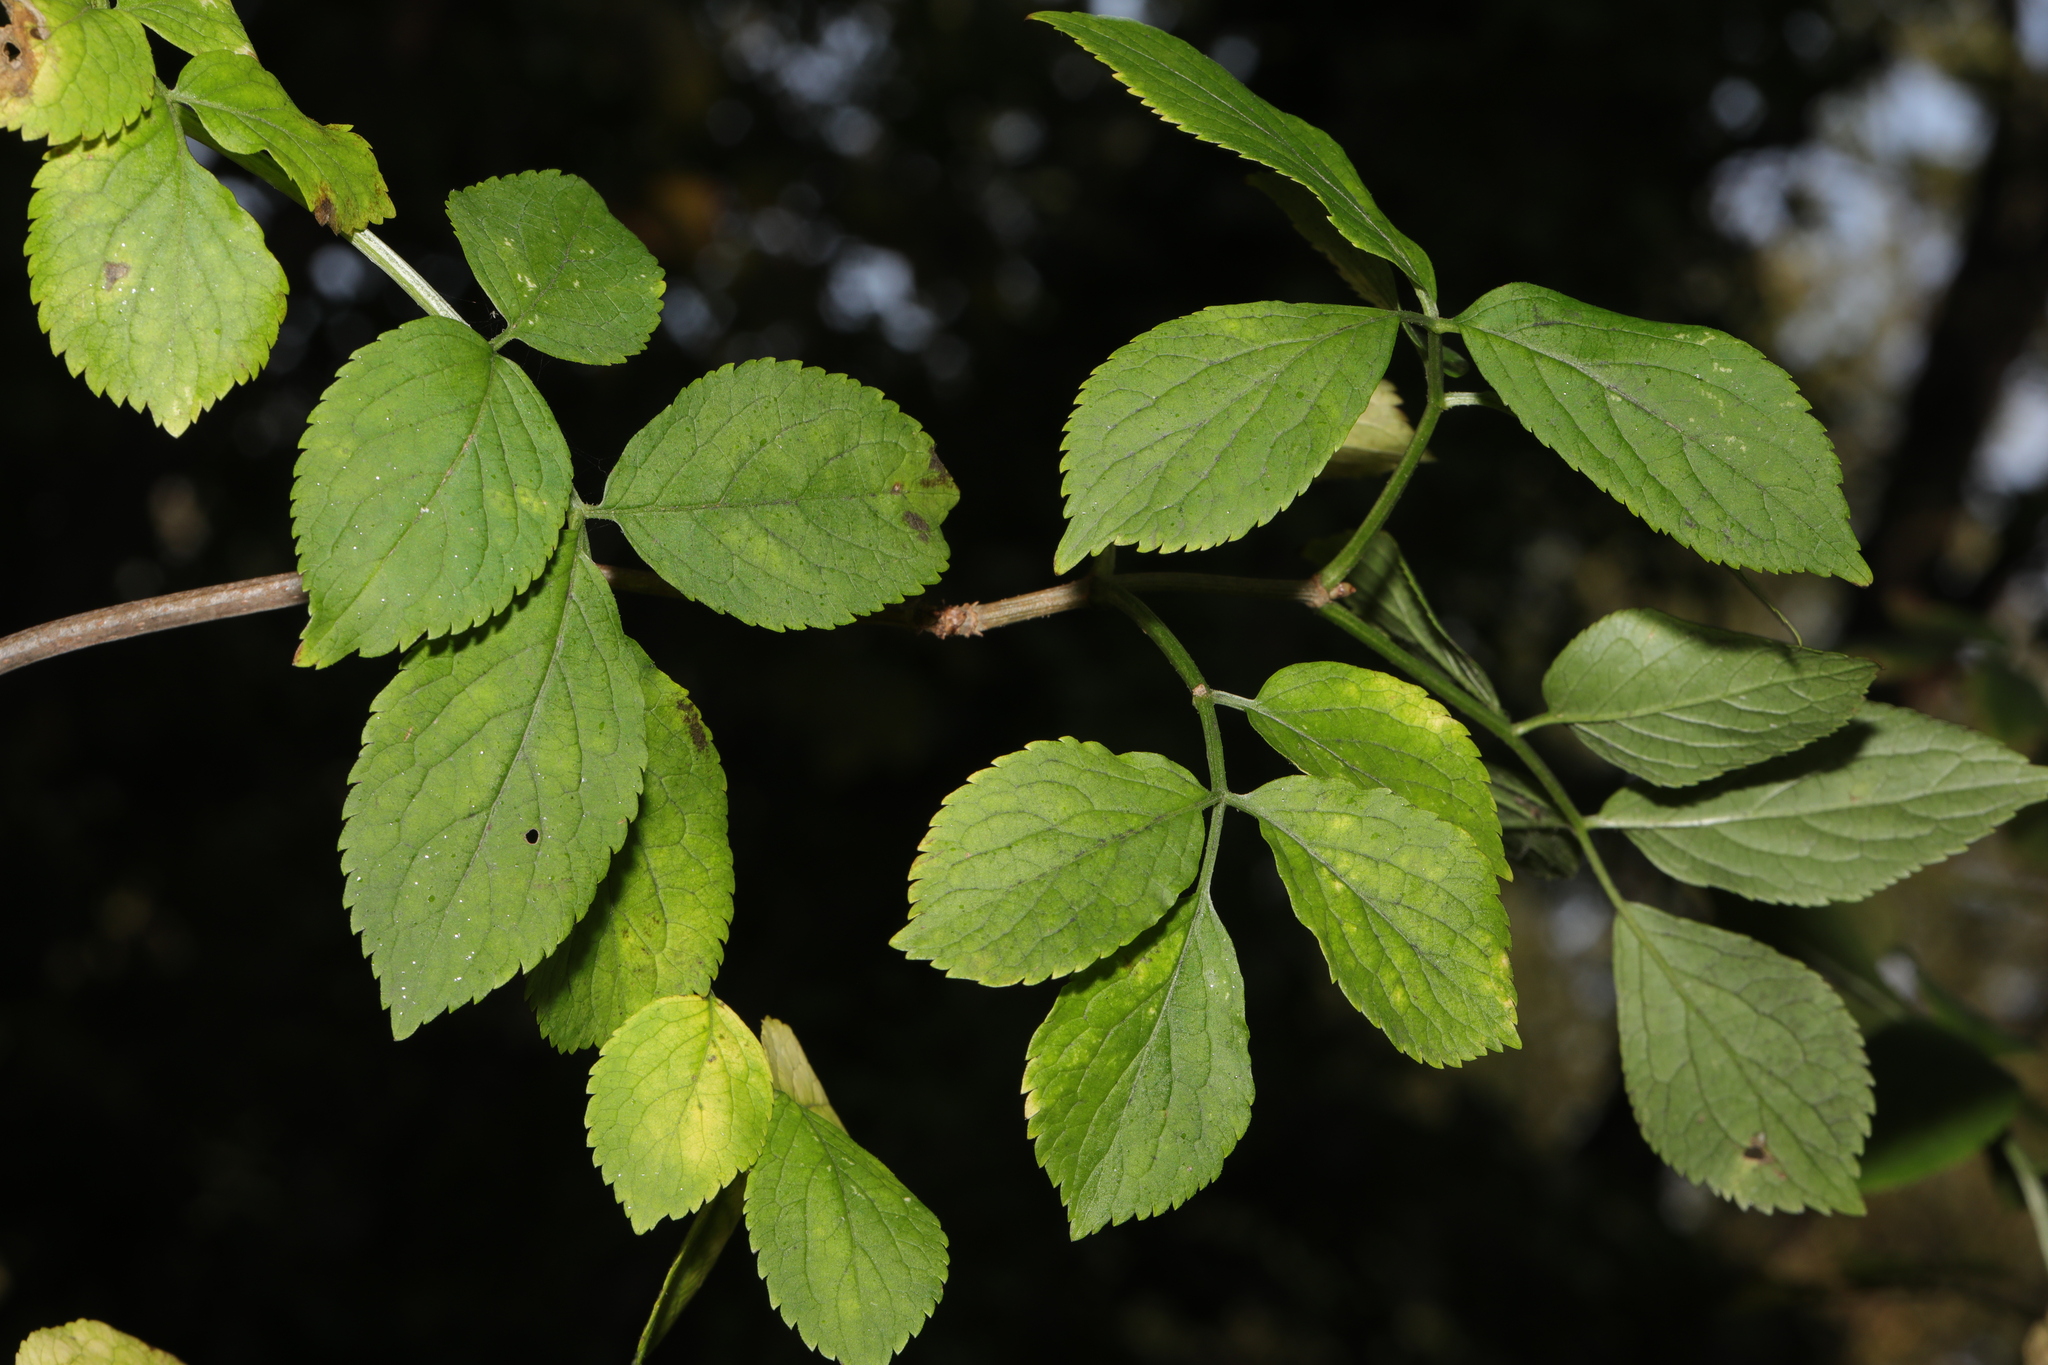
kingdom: Plantae
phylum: Tracheophyta
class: Magnoliopsida
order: Dipsacales
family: Viburnaceae
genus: Sambucus
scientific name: Sambucus nigra
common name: Elder
